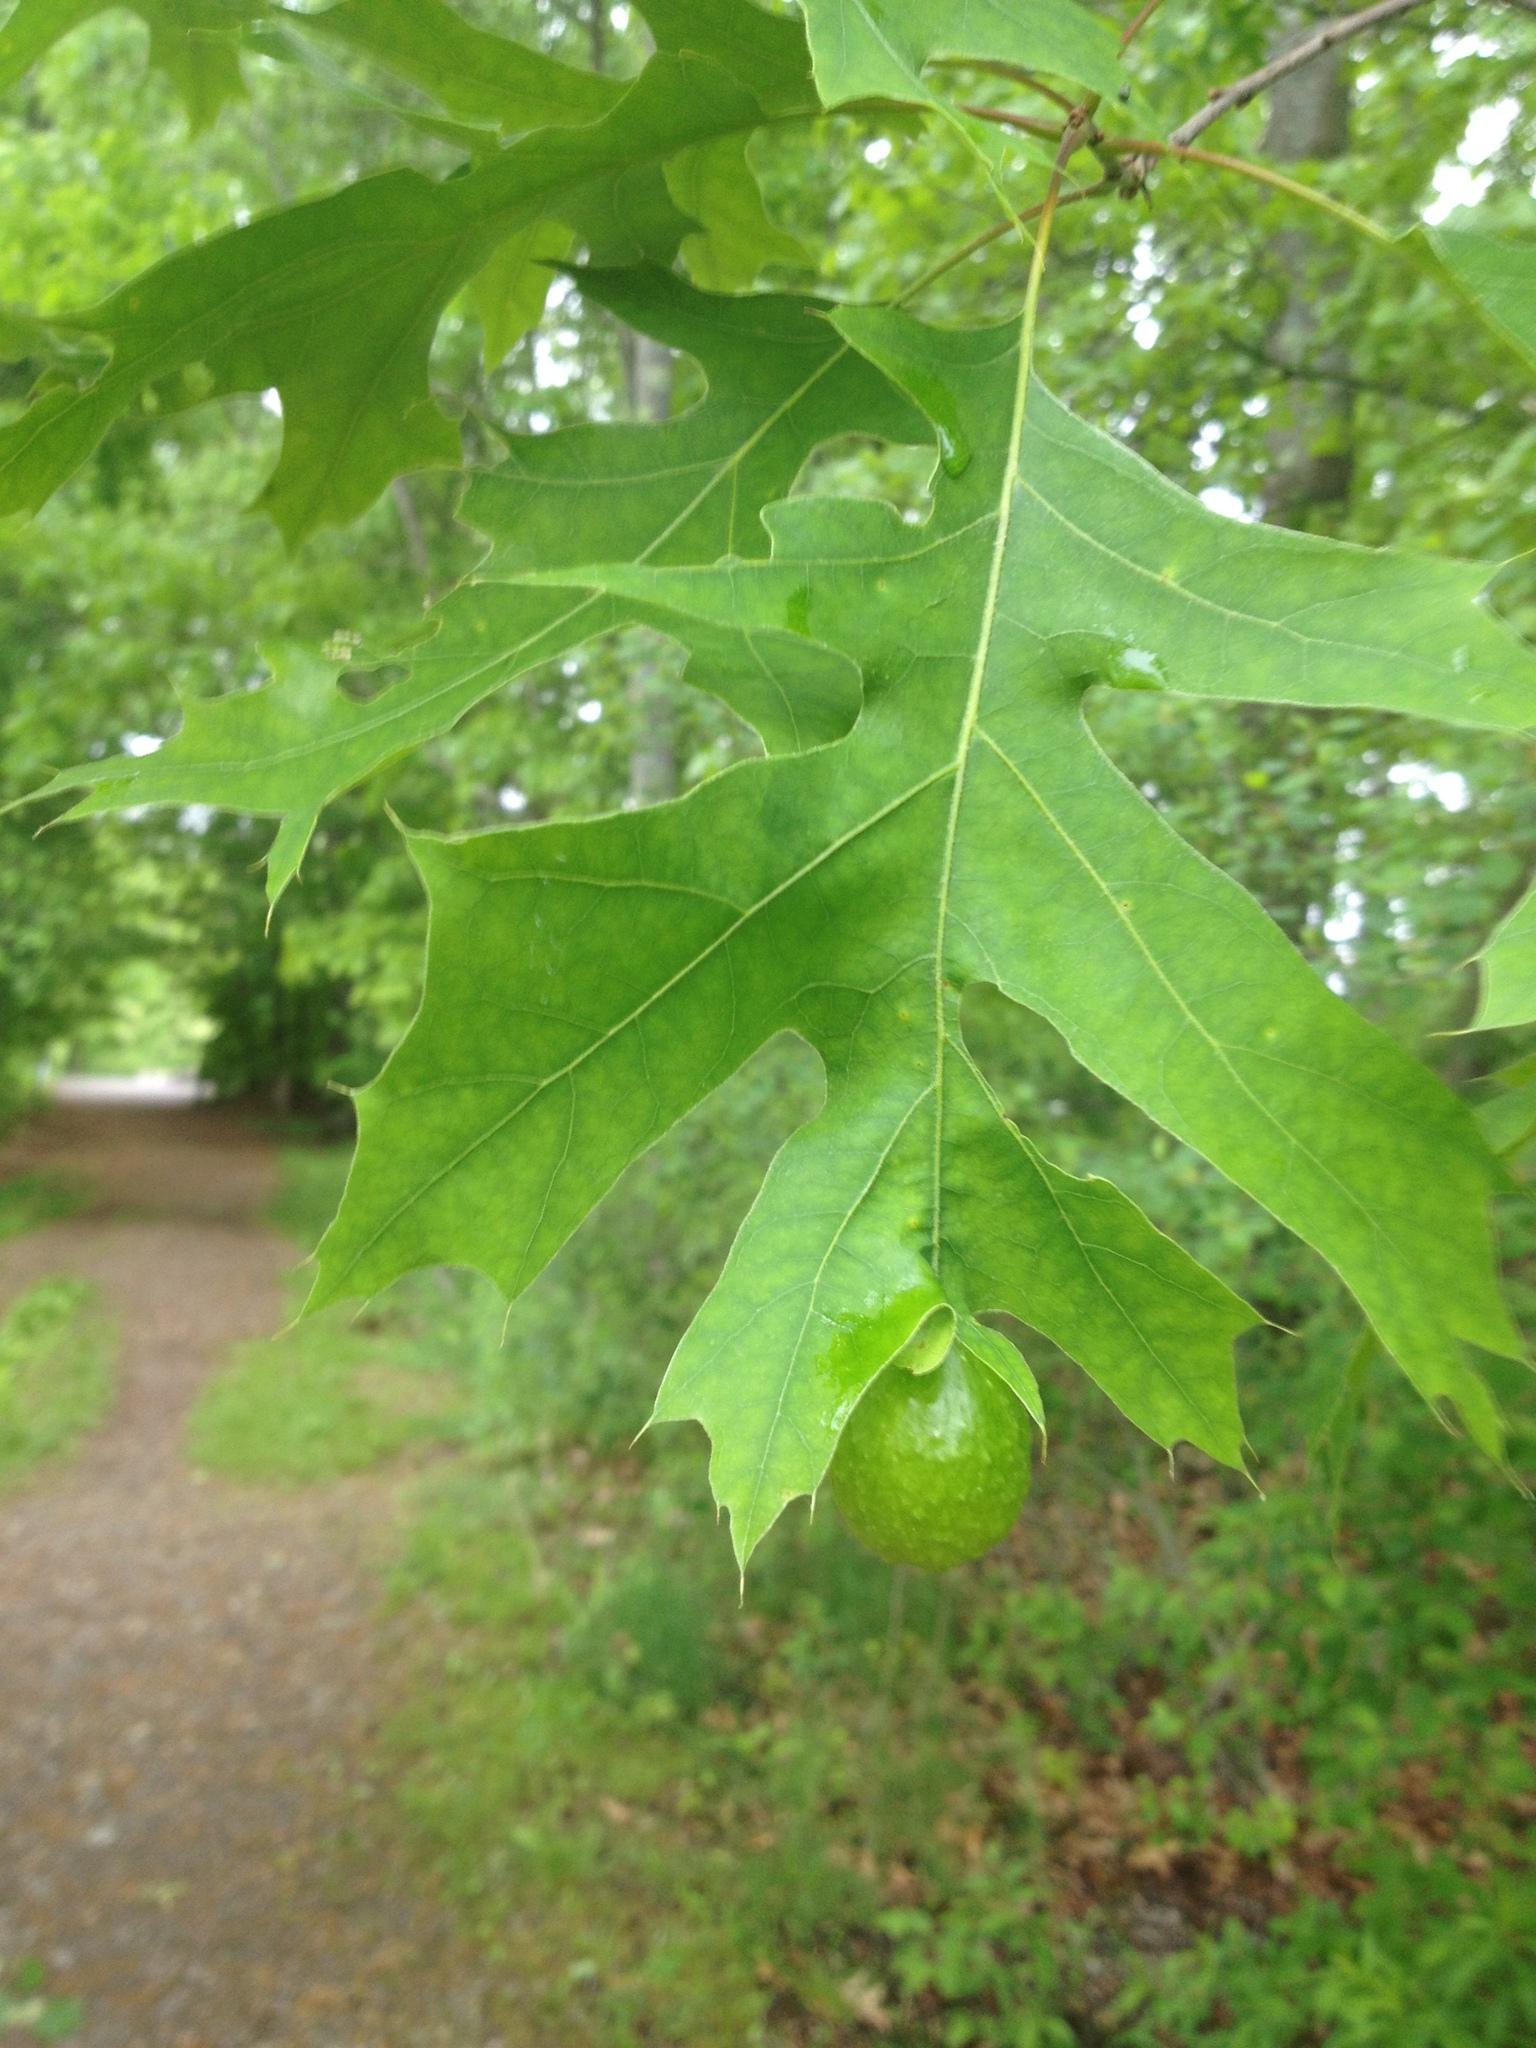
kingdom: Animalia
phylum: Arthropoda
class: Insecta
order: Hymenoptera
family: Cynipidae
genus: Amphibolips
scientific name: Amphibolips
